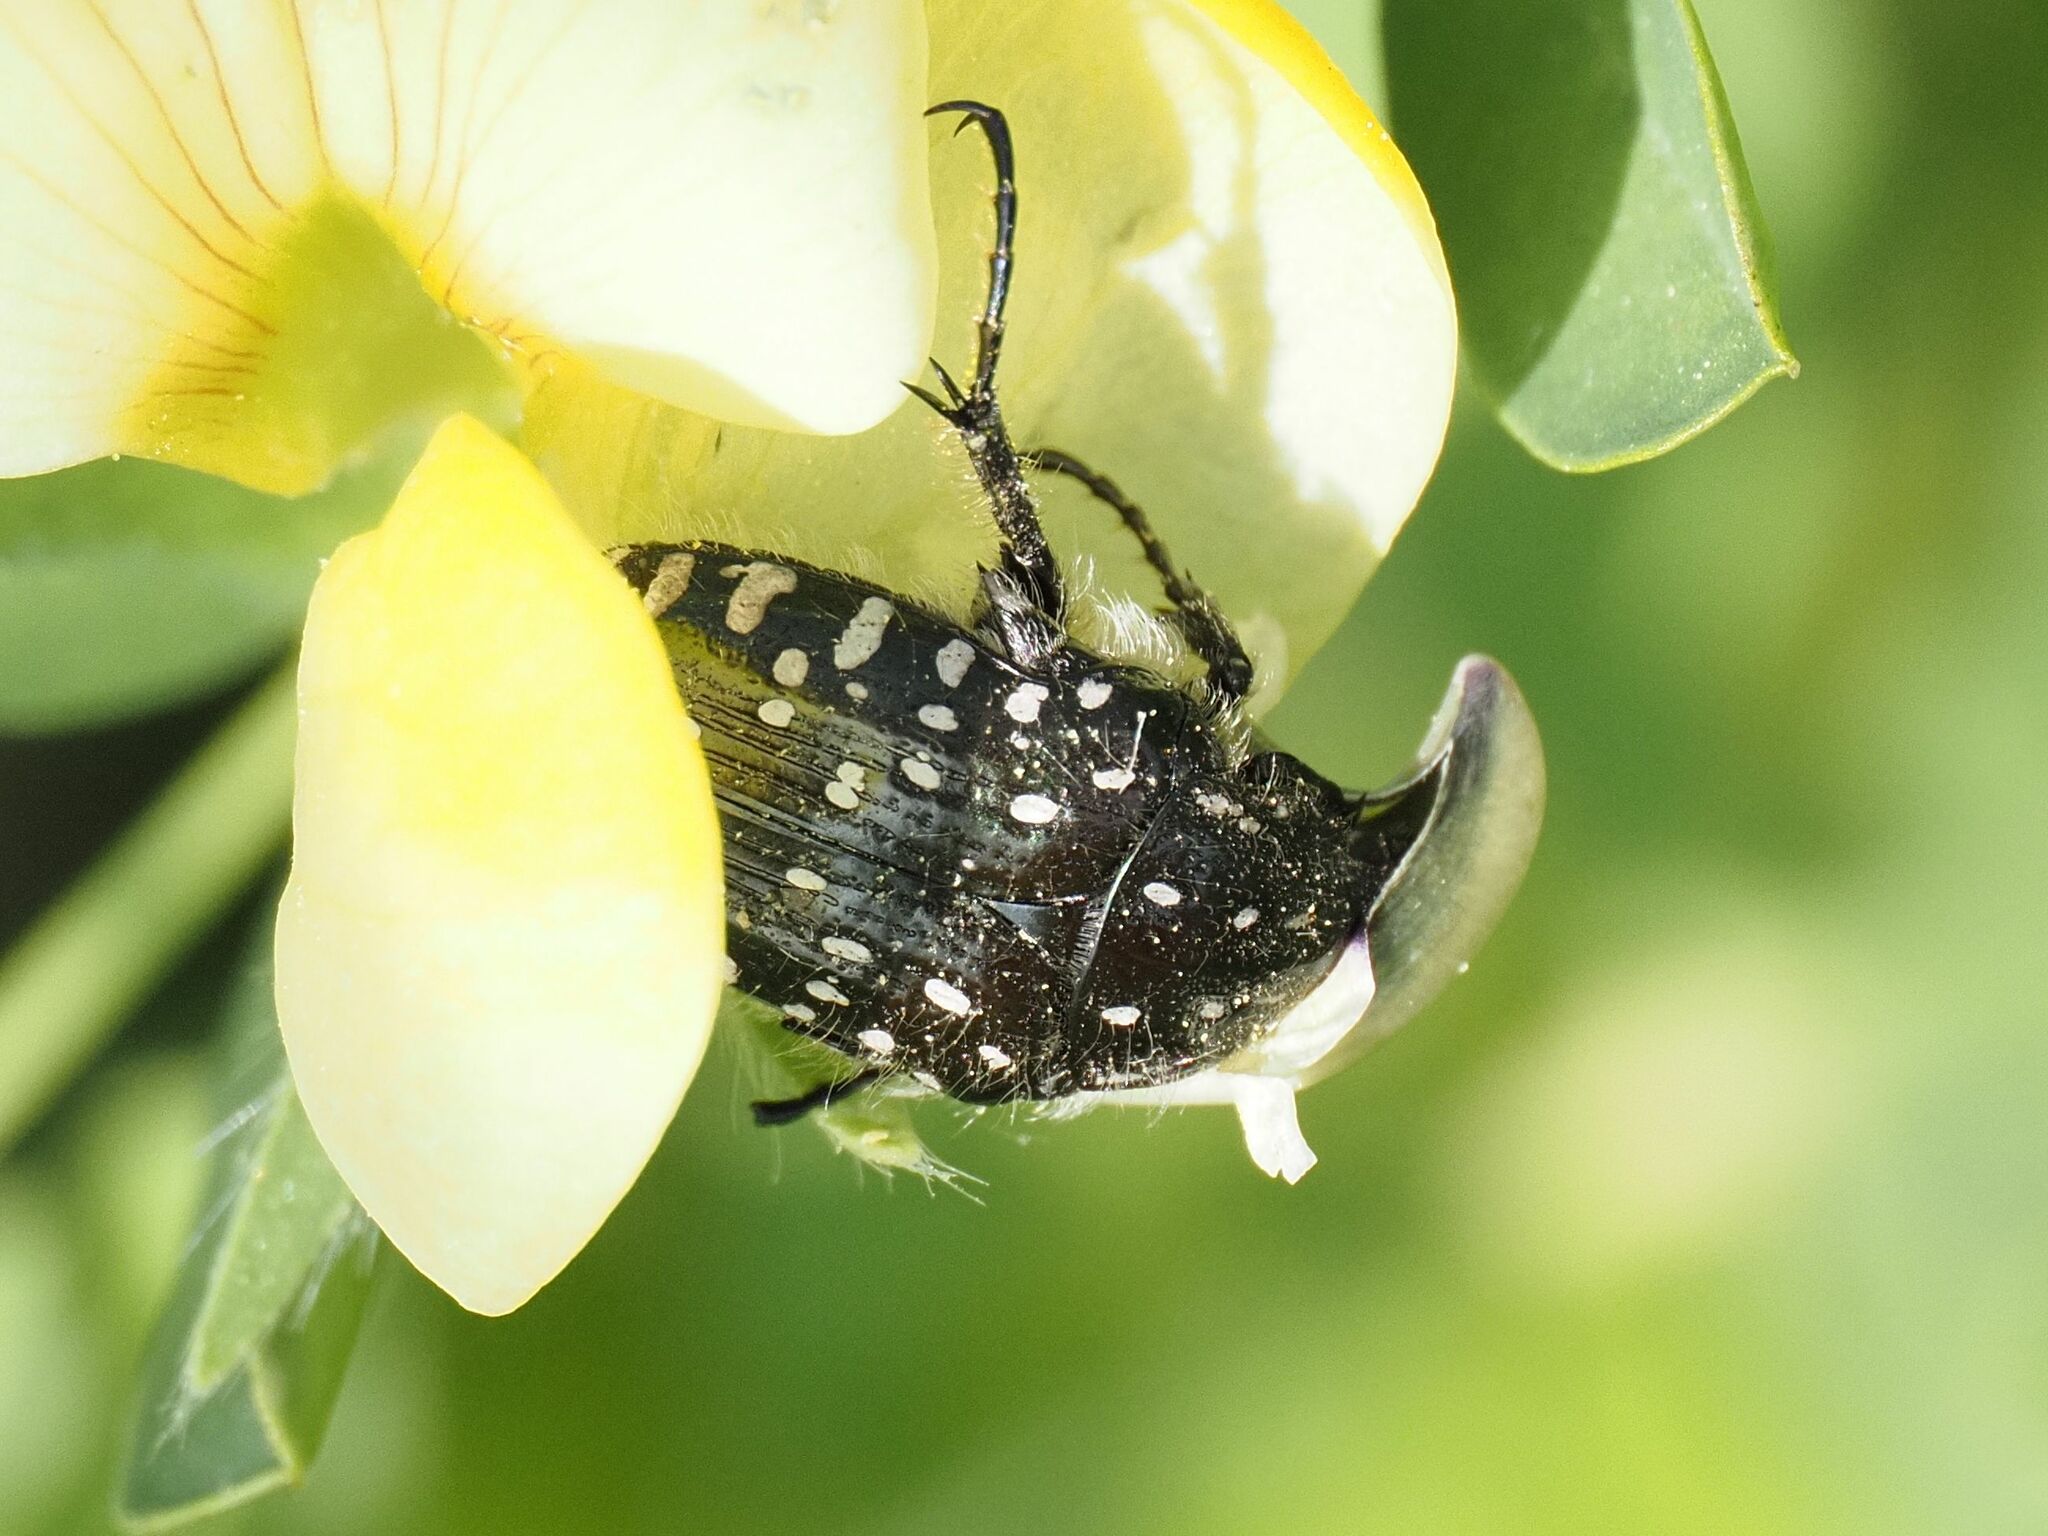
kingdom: Animalia
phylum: Arthropoda
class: Insecta
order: Coleoptera
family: Scarabaeidae
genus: Oxythyrea
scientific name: Oxythyrea funesta
